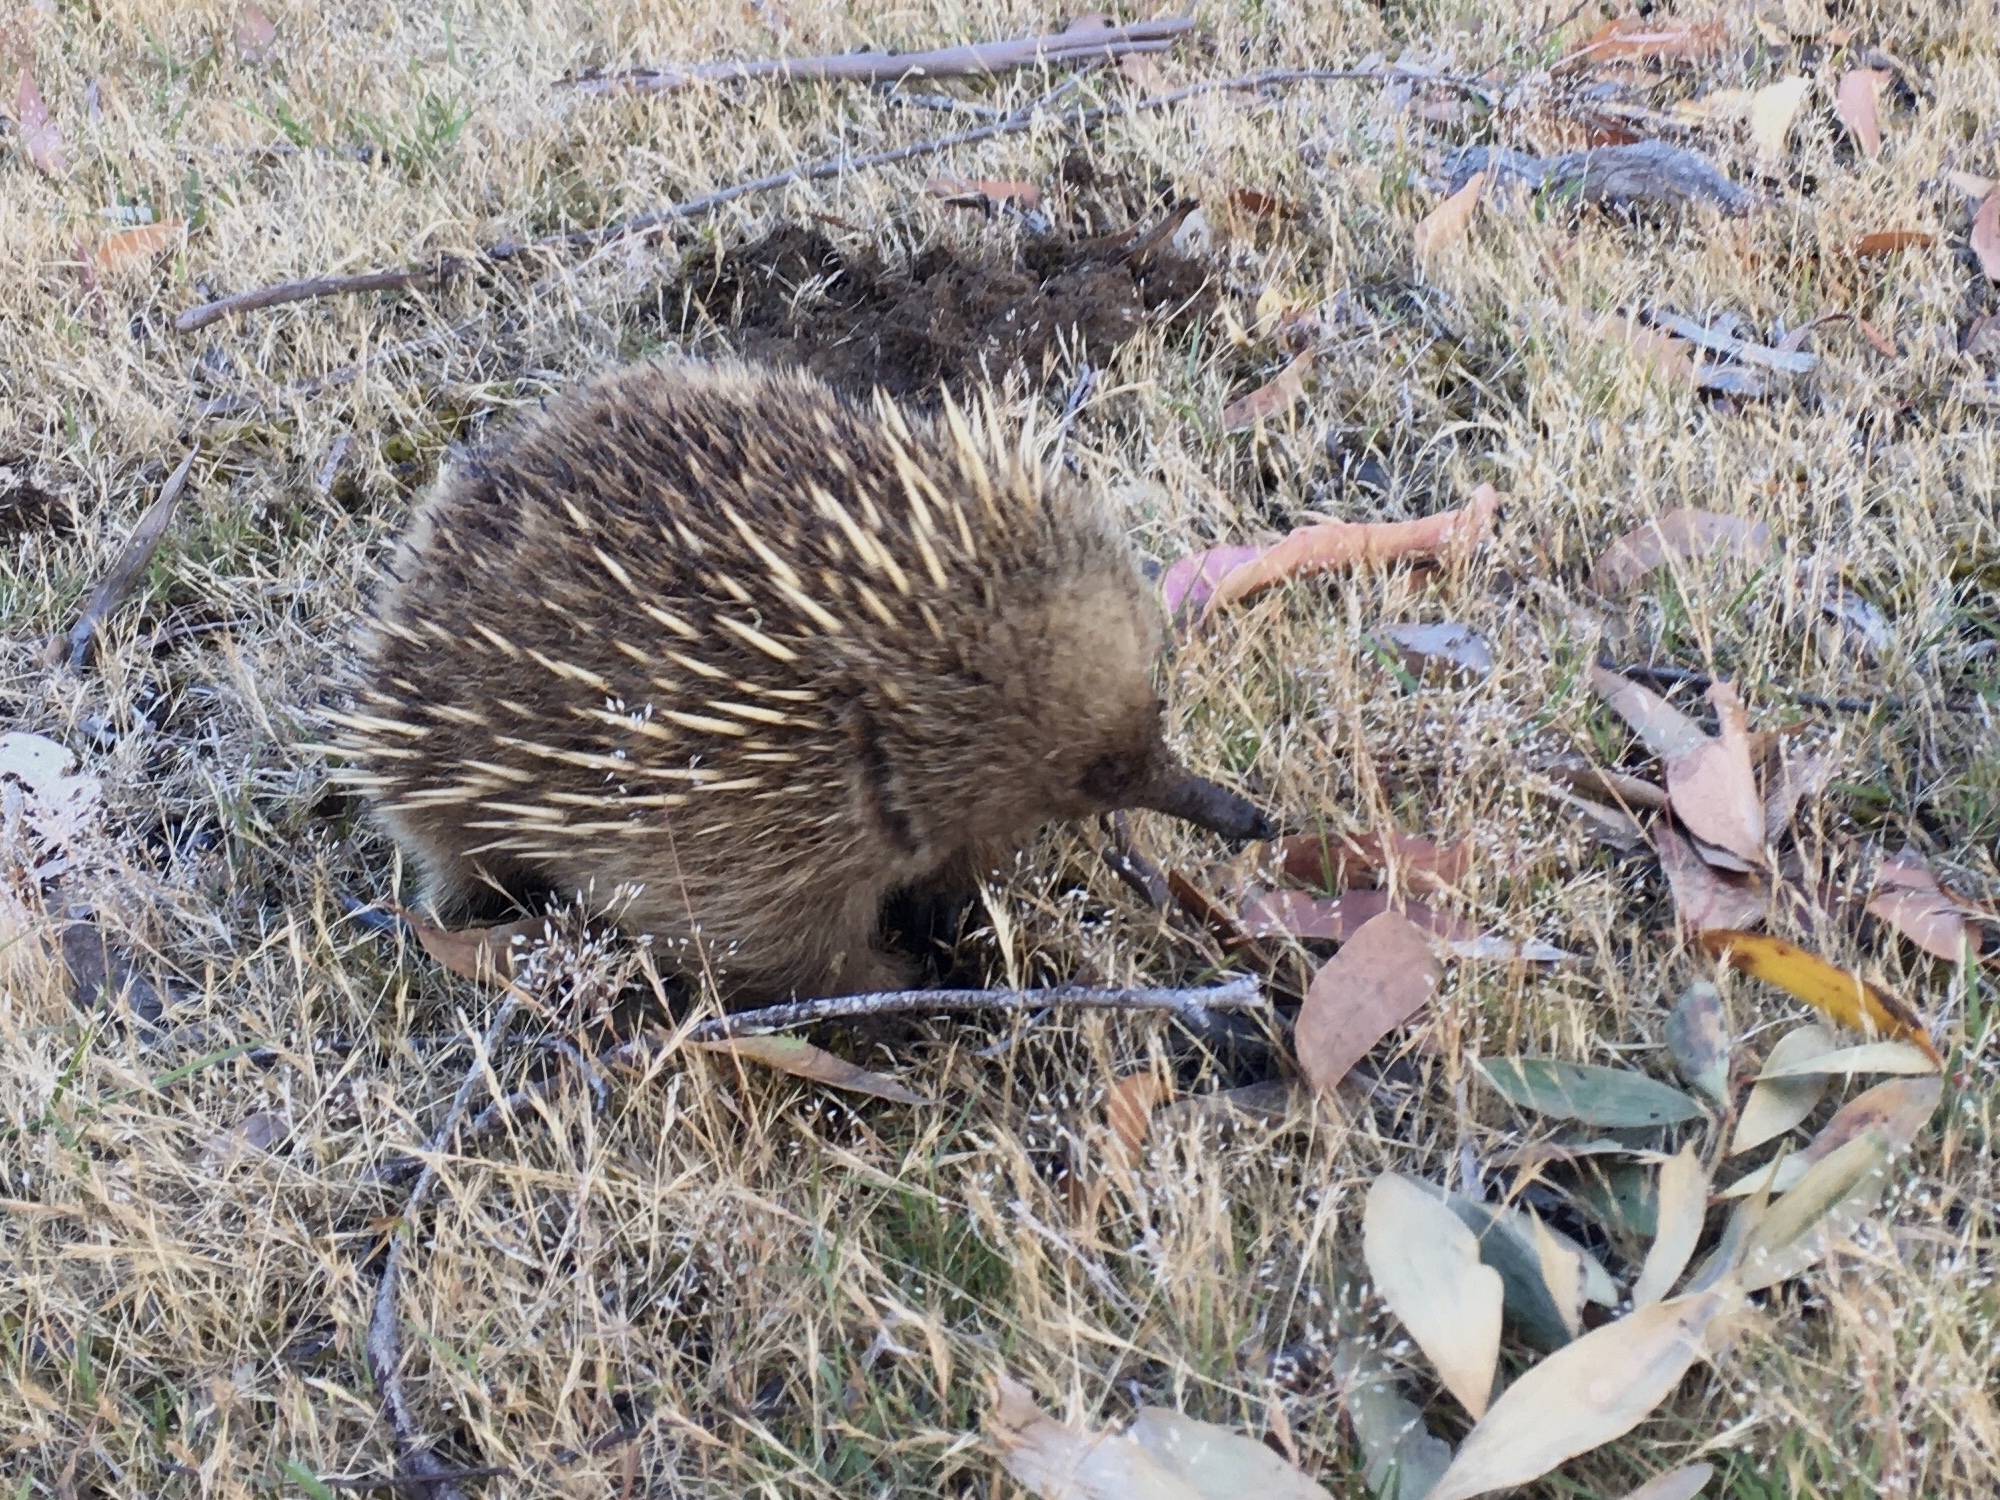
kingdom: Animalia
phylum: Chordata
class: Mammalia
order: Monotremata
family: Tachyglossidae
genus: Tachyglossus
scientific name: Tachyglossus aculeatus
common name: Short-beaked echidna
